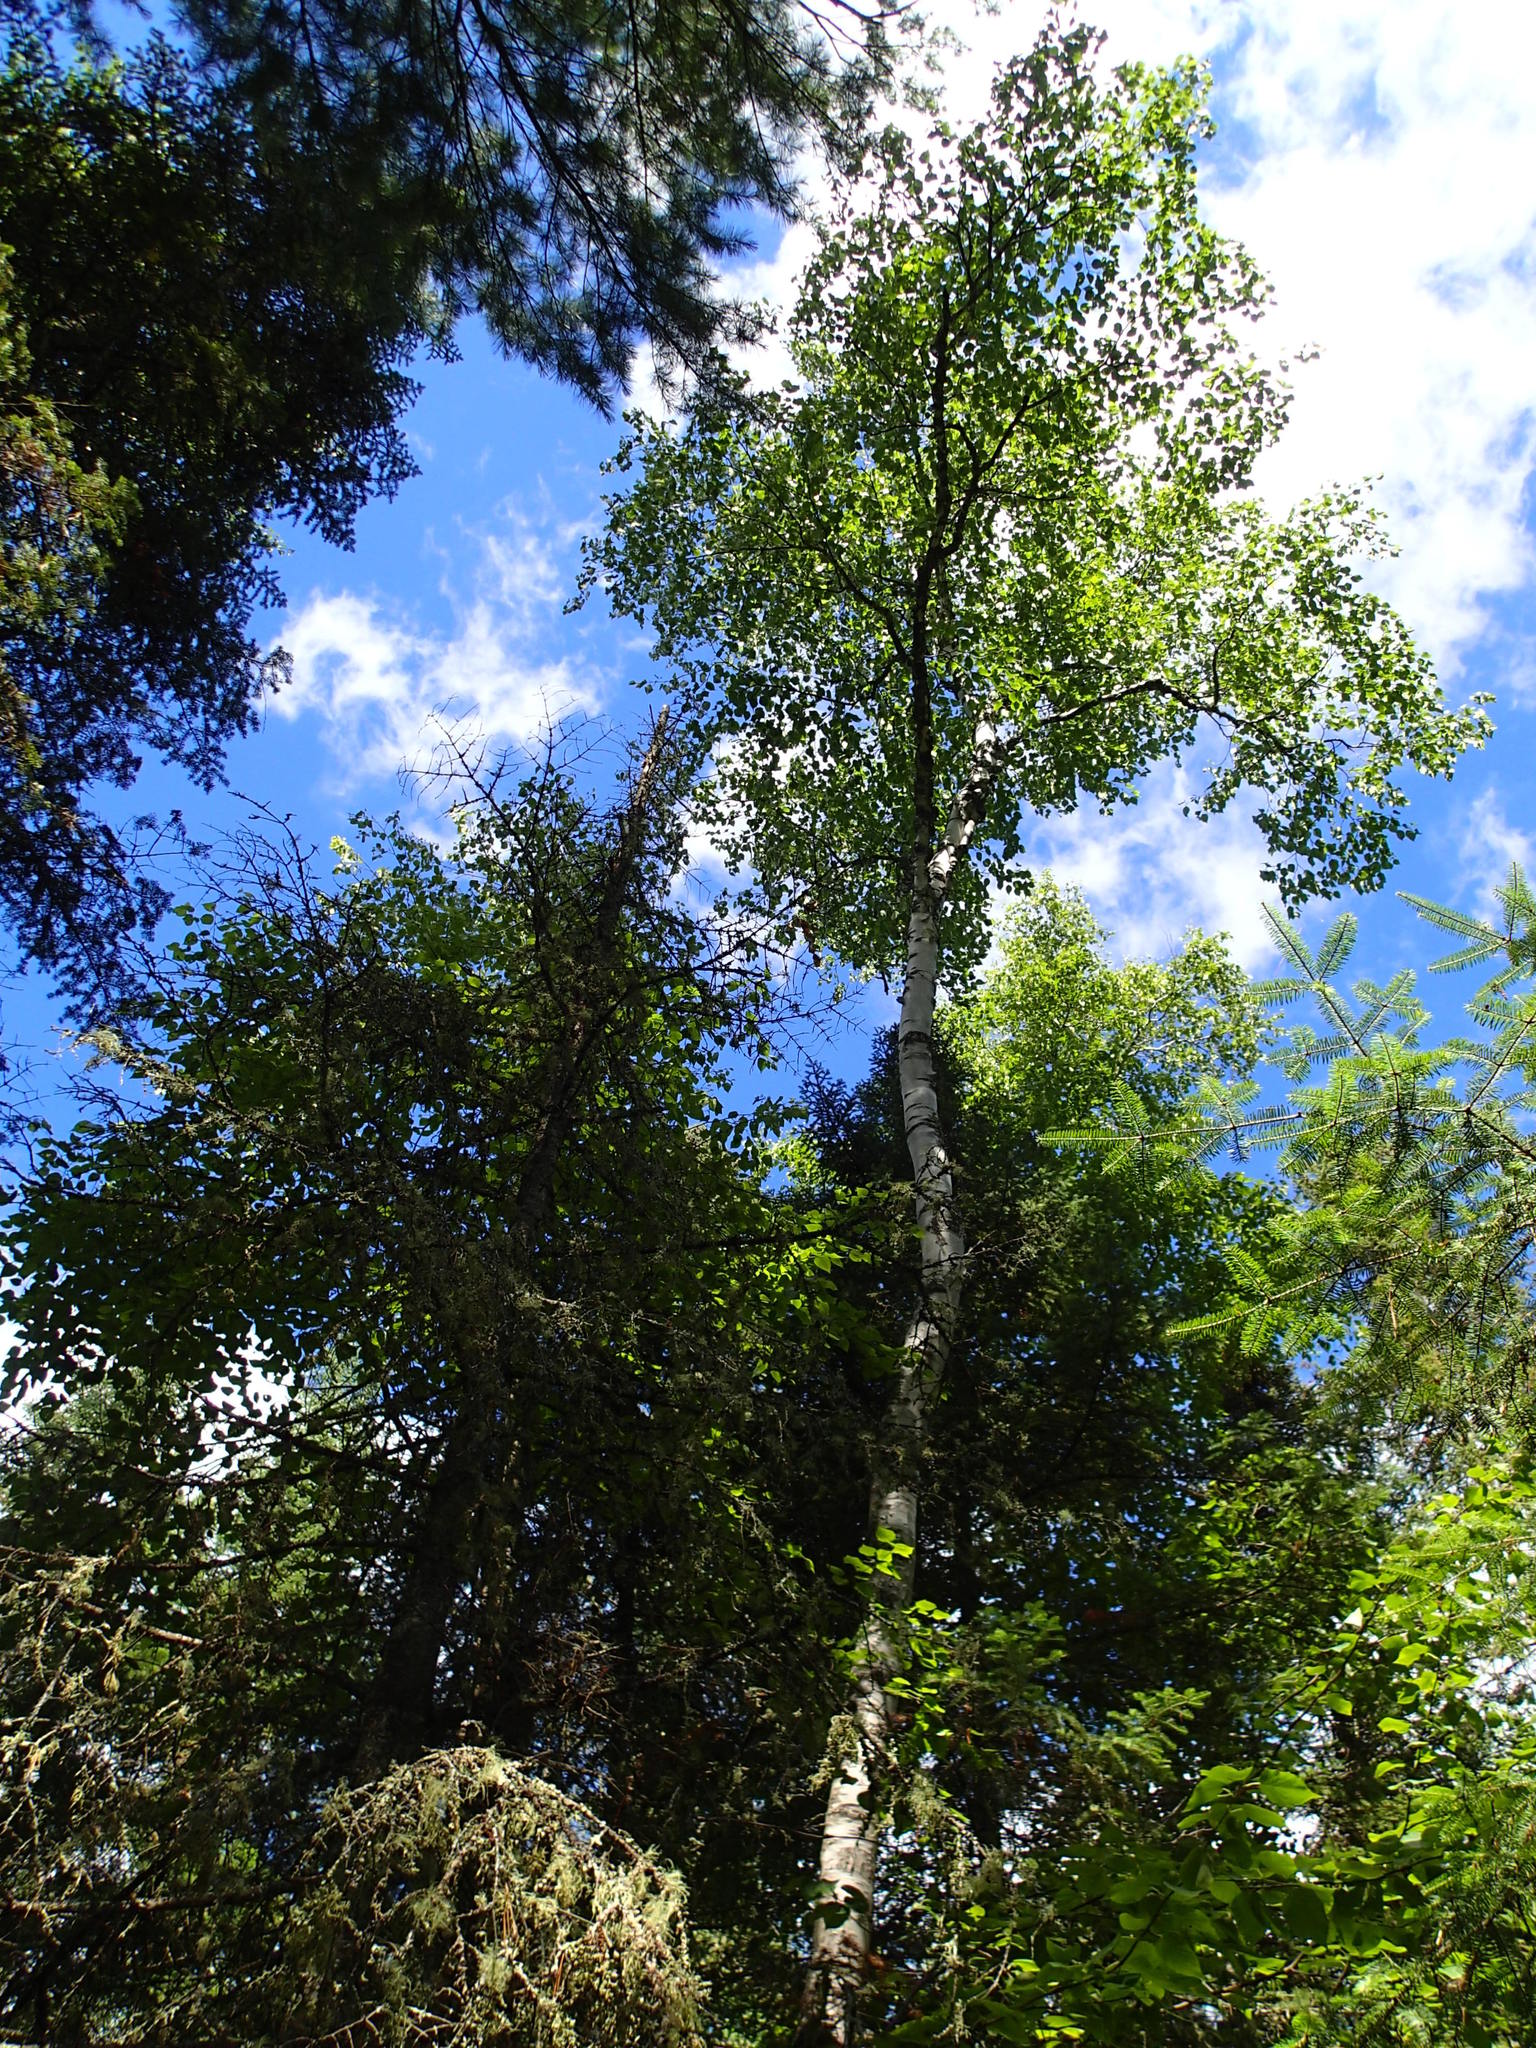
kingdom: Plantae
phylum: Tracheophyta
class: Magnoliopsida
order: Fagales
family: Betulaceae
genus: Betula
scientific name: Betula papyrifera
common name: Paper birch
